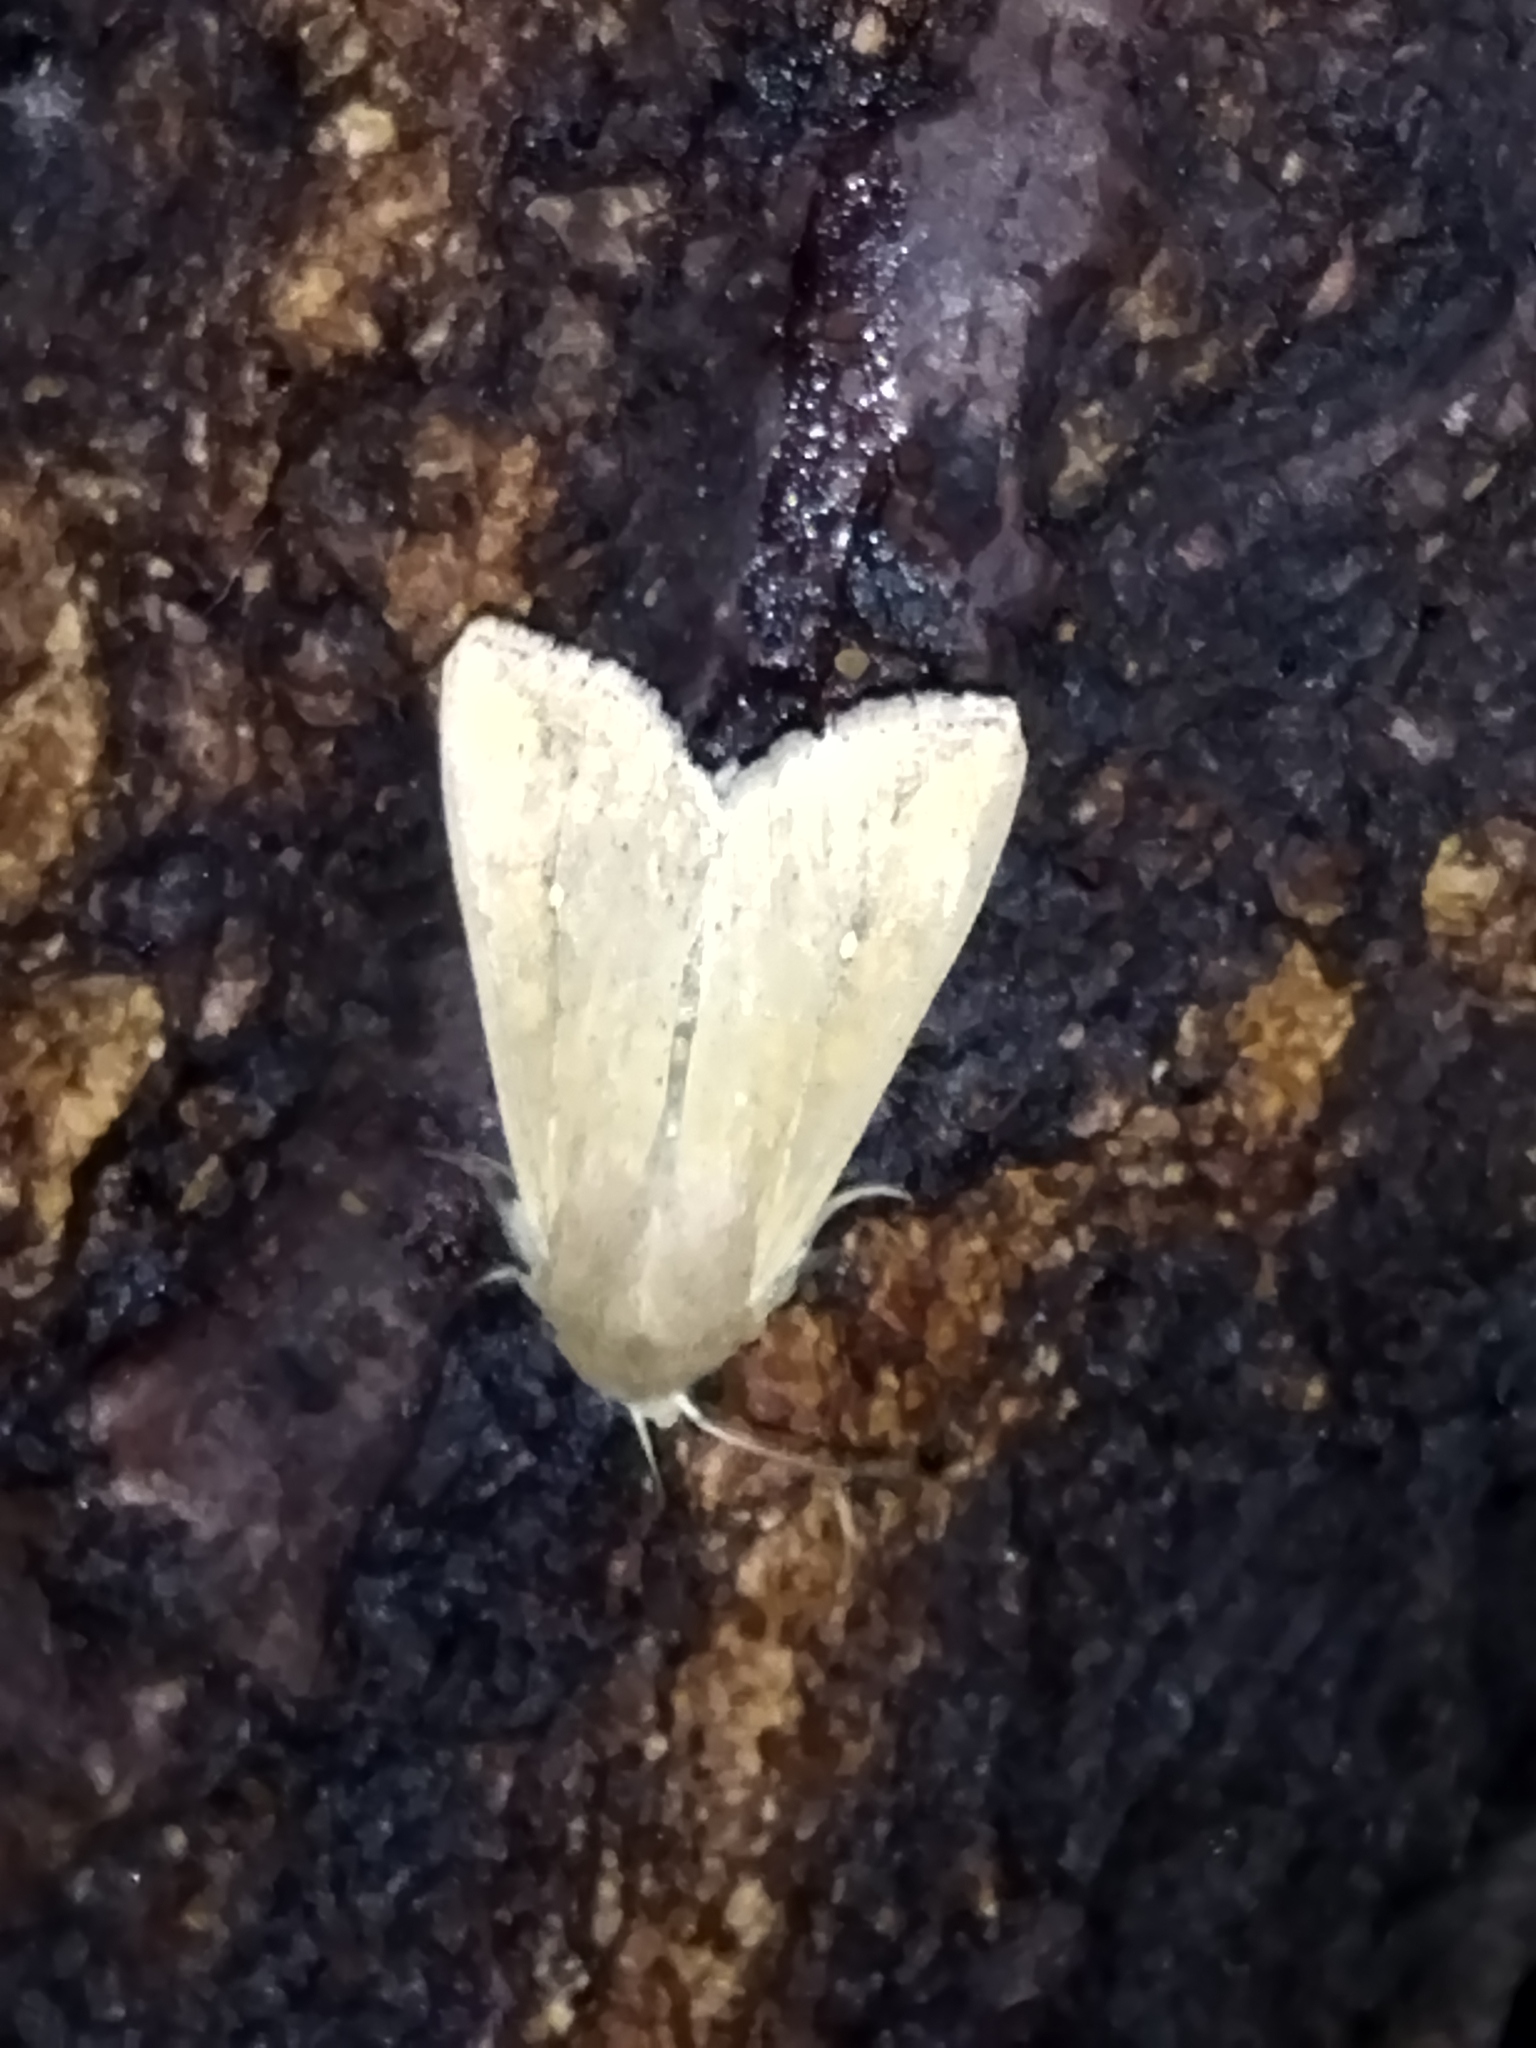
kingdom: Animalia
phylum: Arthropoda
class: Insecta
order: Lepidoptera
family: Noctuidae
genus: Mythimna
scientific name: Mythimna unipuncta
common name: White-speck
